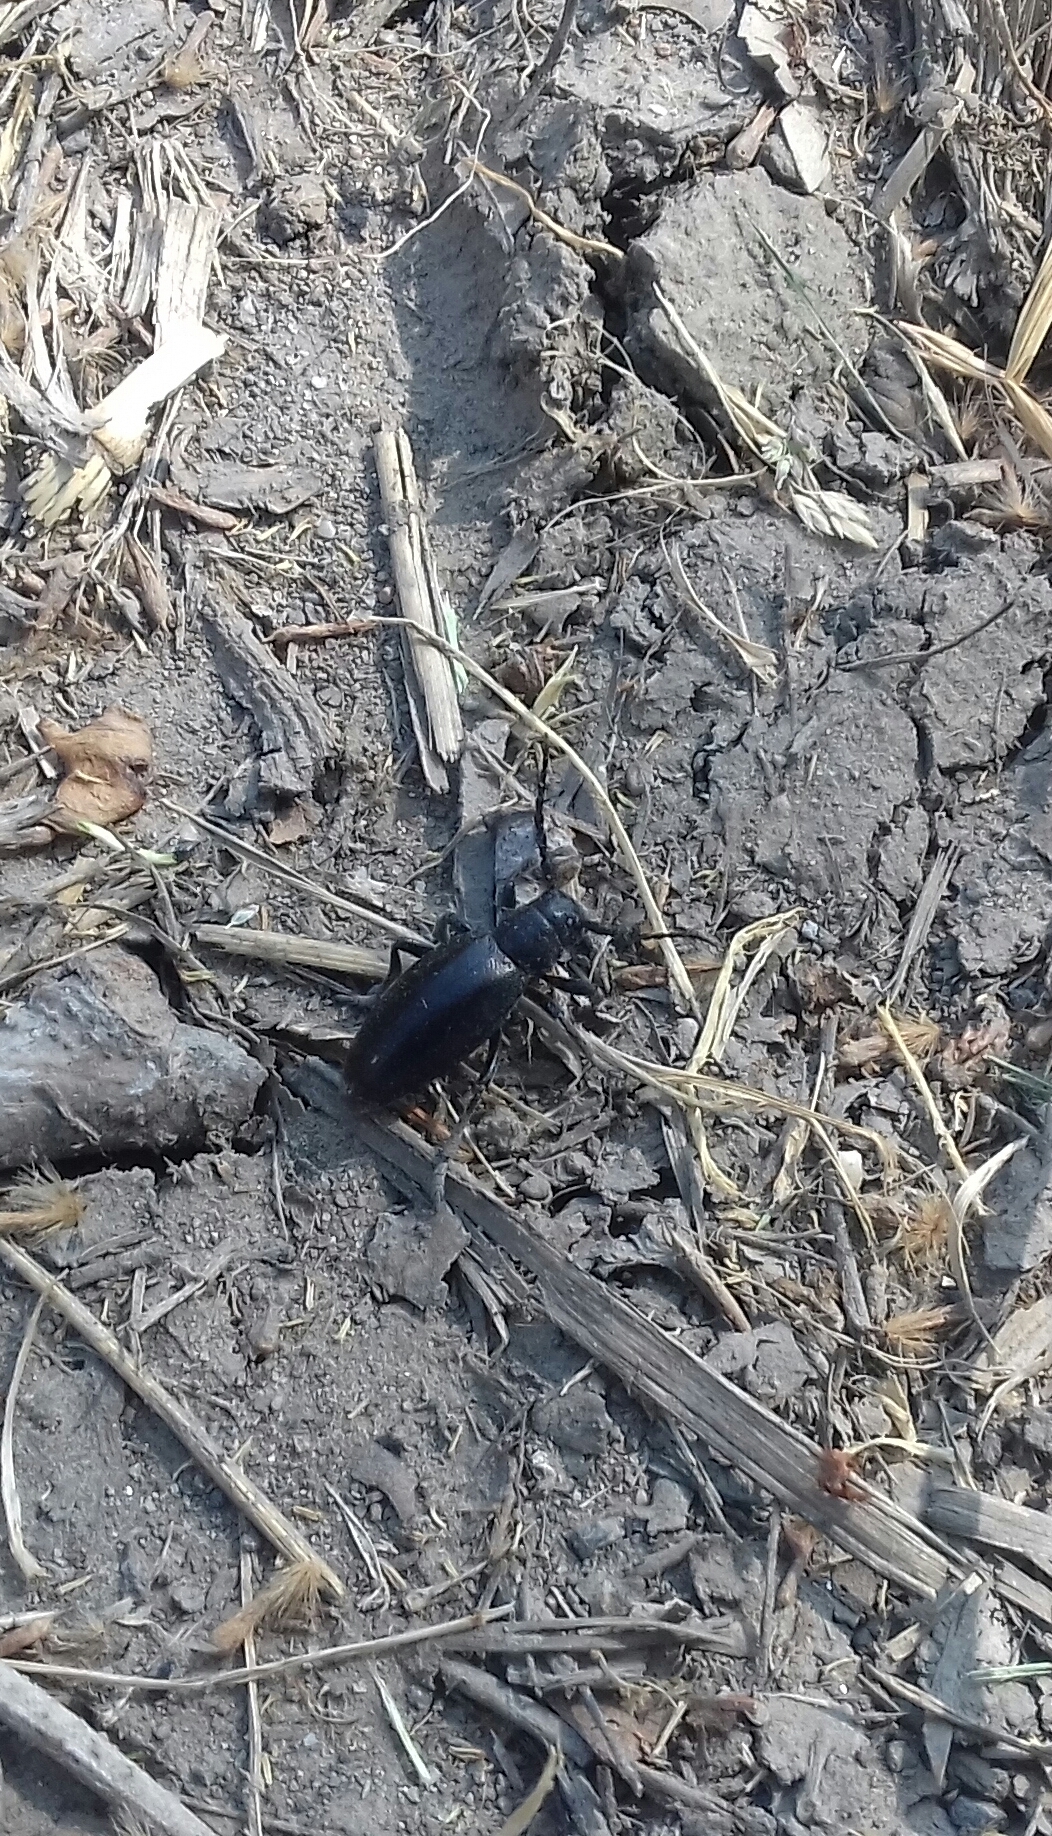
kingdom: Animalia
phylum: Arthropoda
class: Insecta
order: Coleoptera
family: Cerambycidae
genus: Dorcadion
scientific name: Dorcadion aethiops
